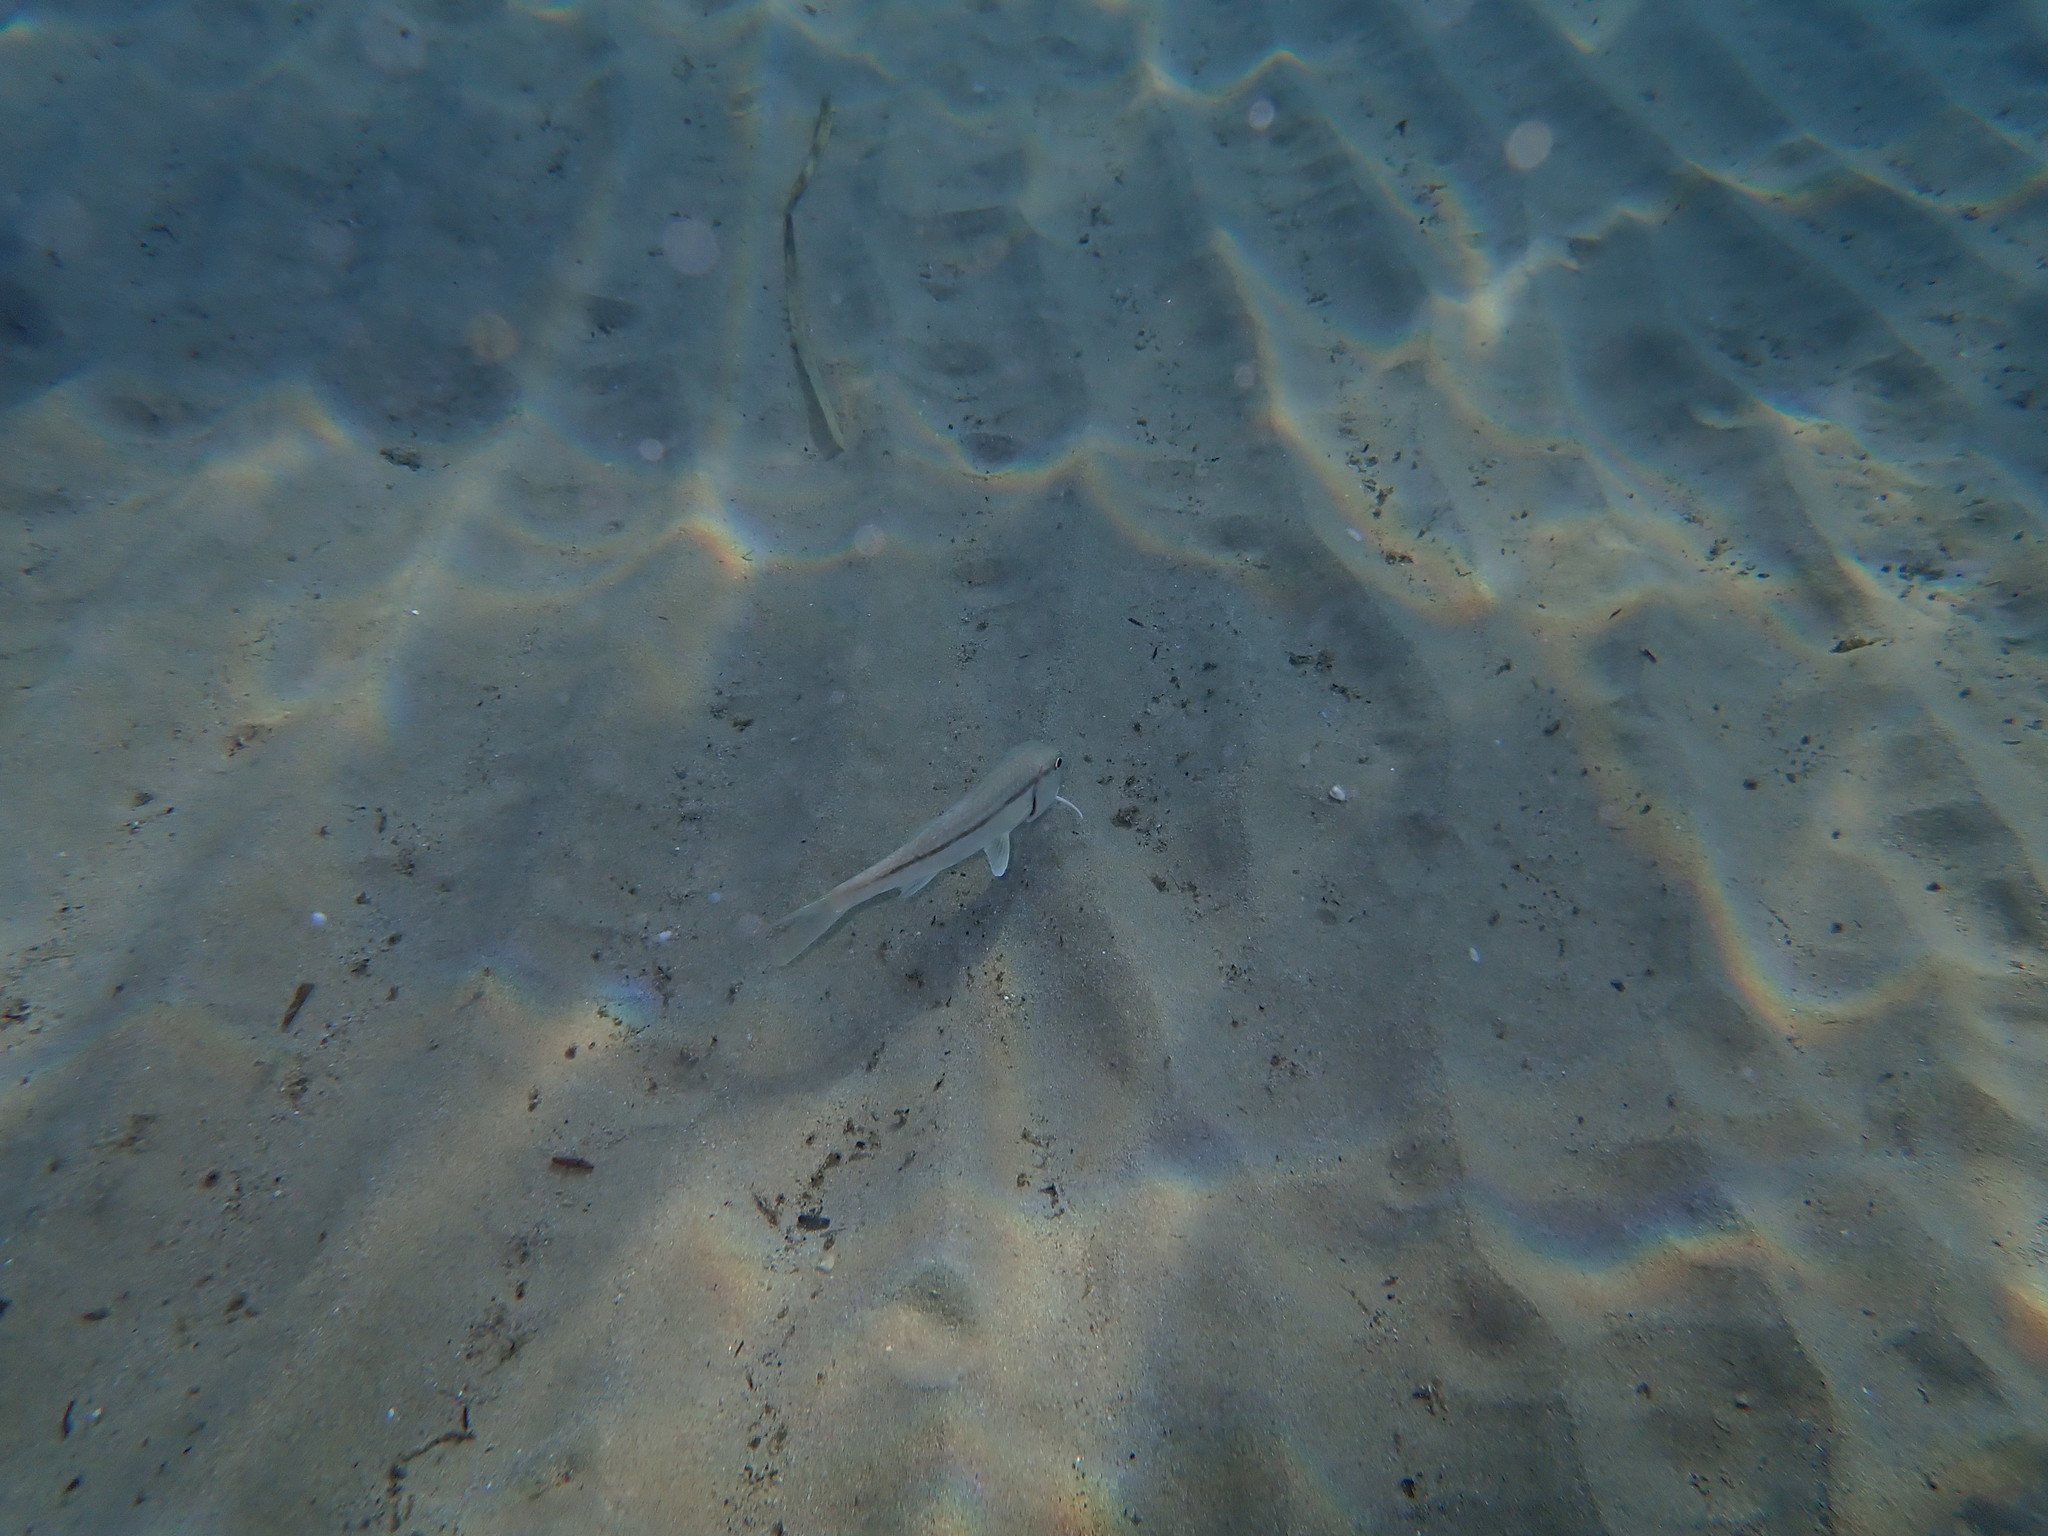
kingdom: Animalia
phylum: Chordata
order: Perciformes
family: Mullidae
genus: Mullus
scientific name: Mullus barbatus
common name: Blunt-snouted mullet
